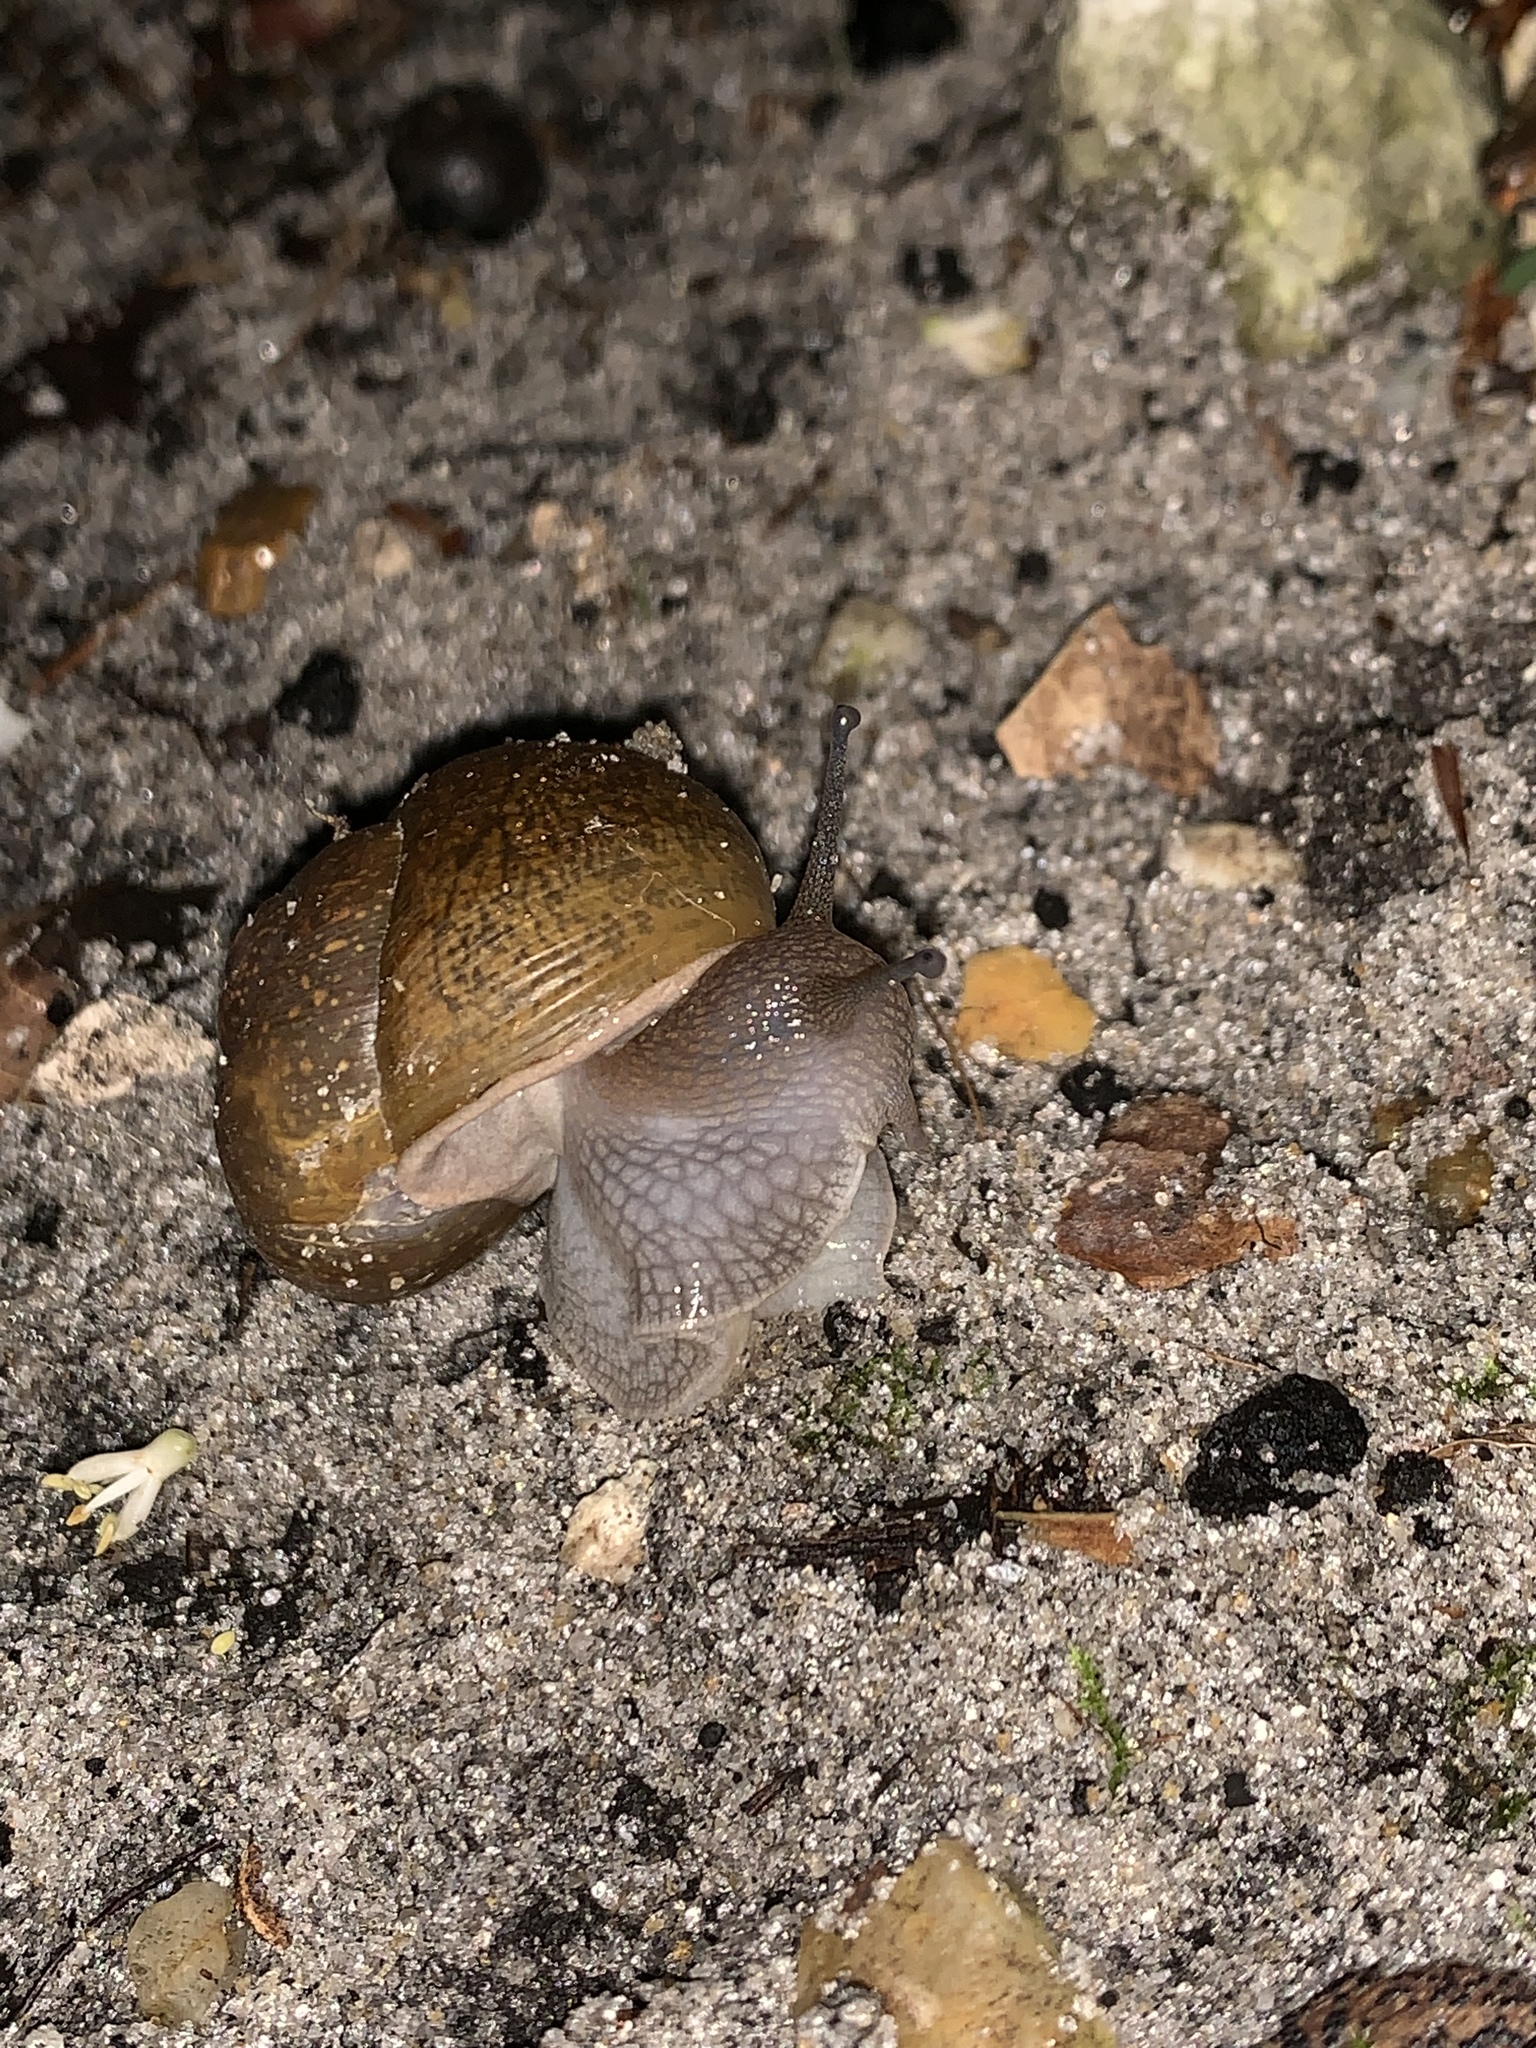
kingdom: Animalia
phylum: Mollusca
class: Gastropoda
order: Stylommatophora
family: Zachrysiidae
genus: Zachrysia
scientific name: Zachrysia provisoria
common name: Garden zachrysia
